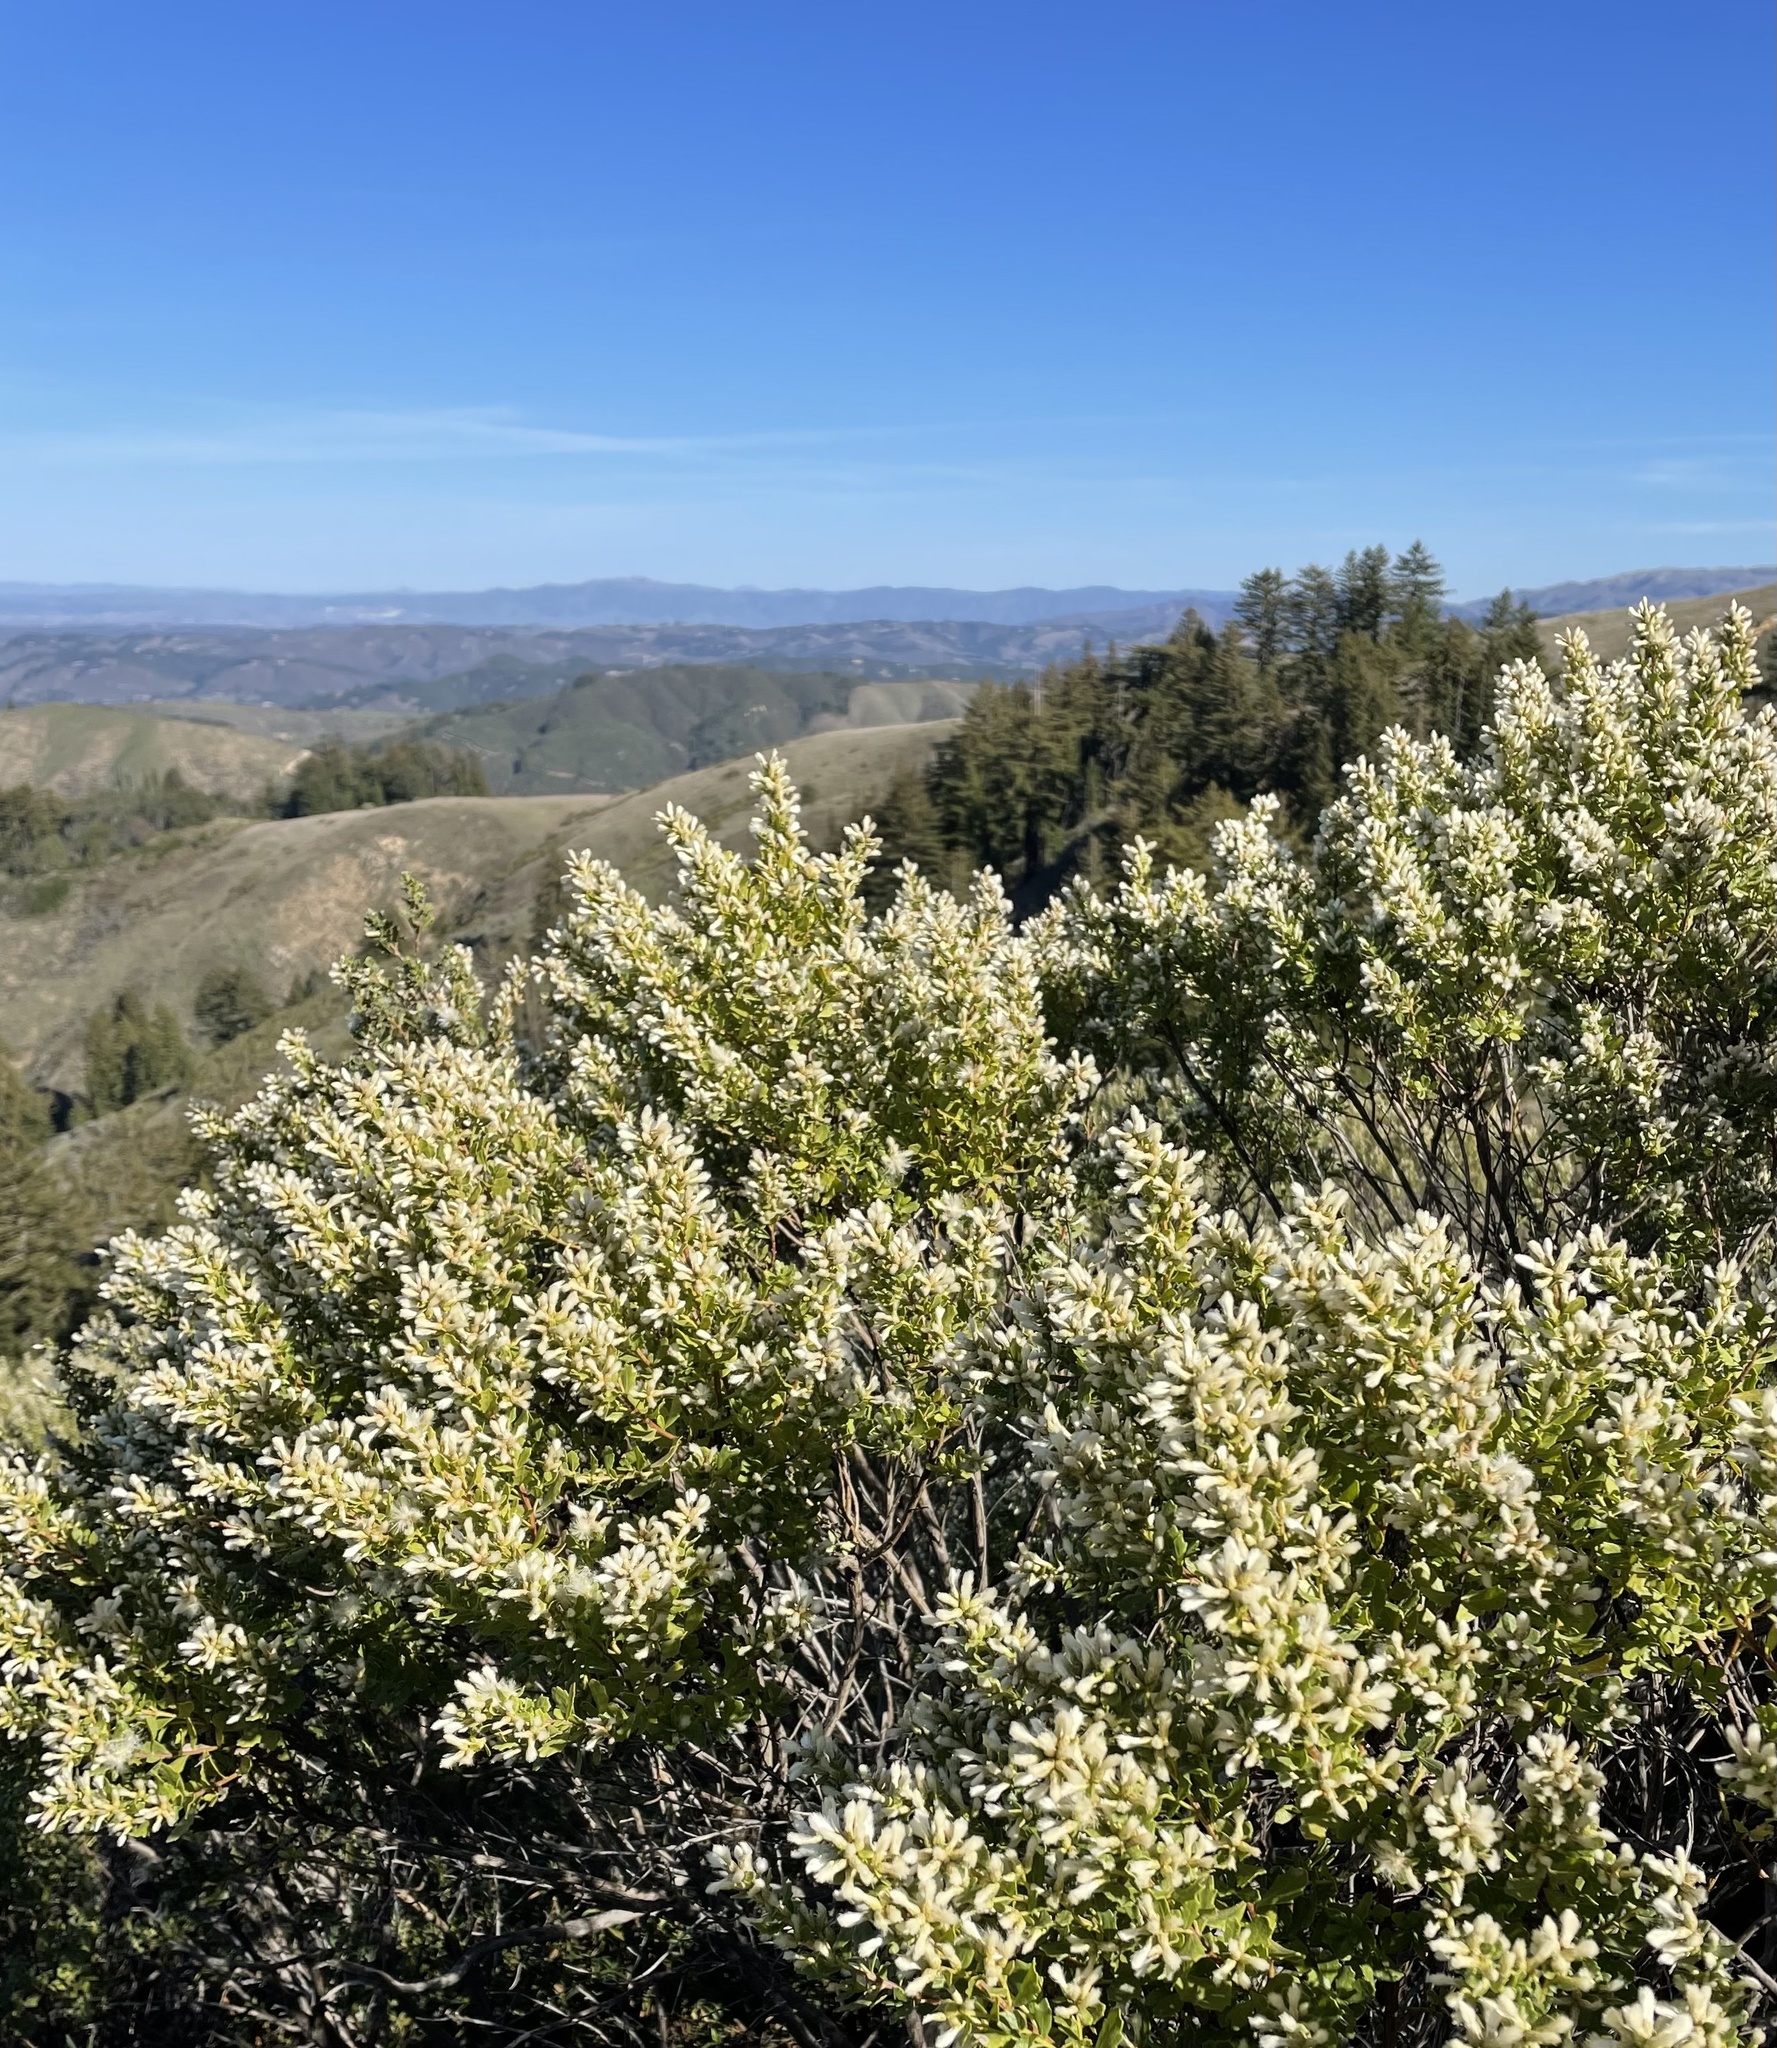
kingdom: Plantae
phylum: Tracheophyta
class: Magnoliopsida
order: Asterales
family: Asteraceae
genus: Baccharis
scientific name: Baccharis pilularis
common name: Coyotebrush
